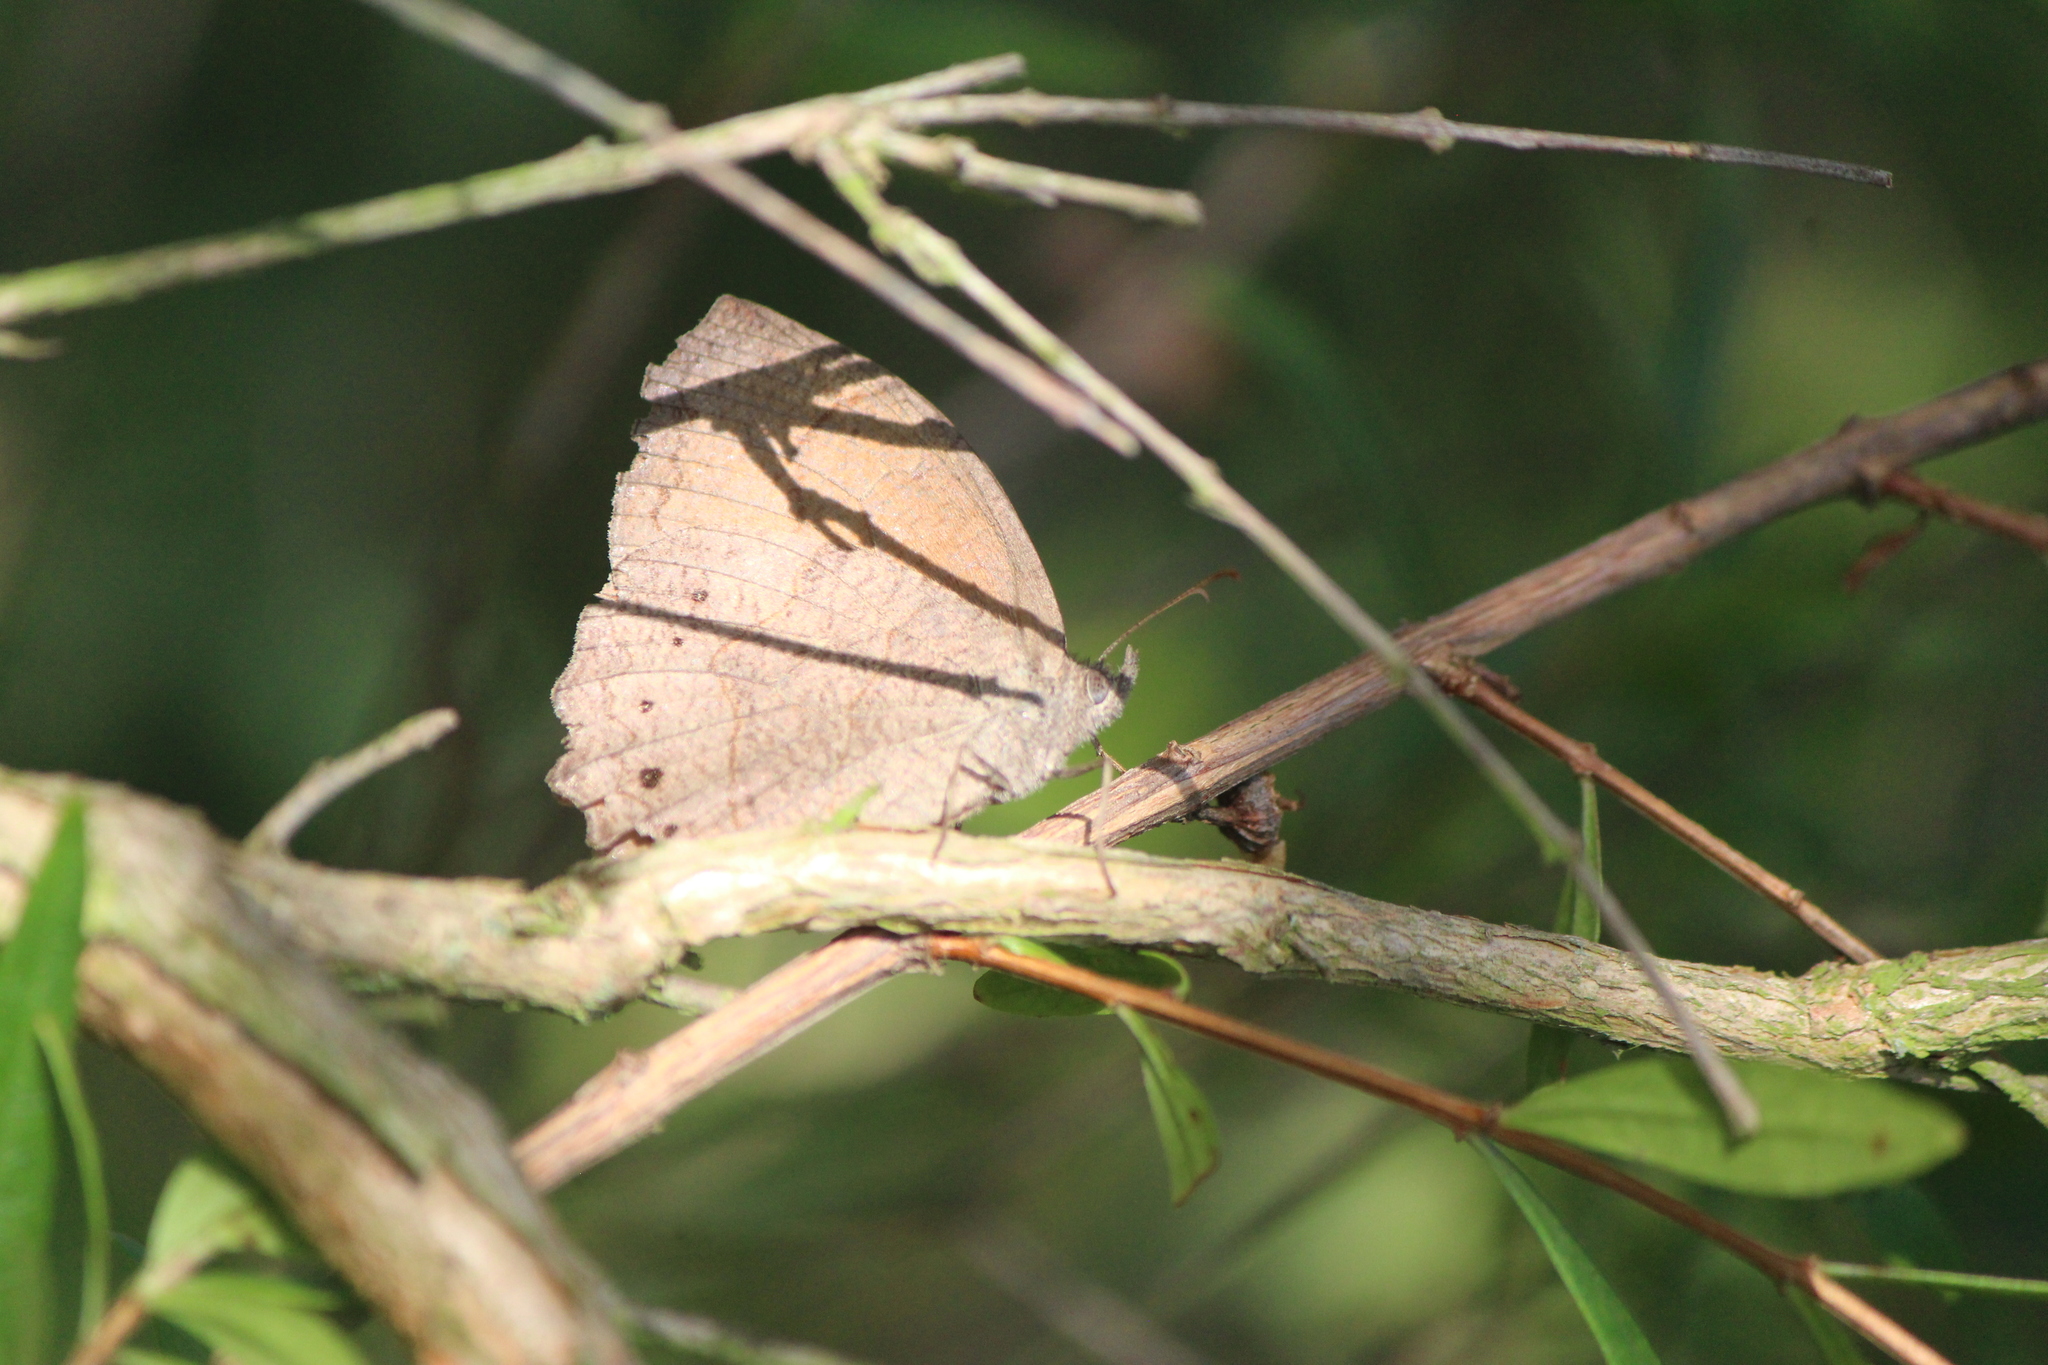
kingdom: Animalia
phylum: Arthropoda
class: Insecta
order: Lepidoptera
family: Nymphalidae
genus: Pindis
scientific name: Pindis squamistriga
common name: Variable satyr
